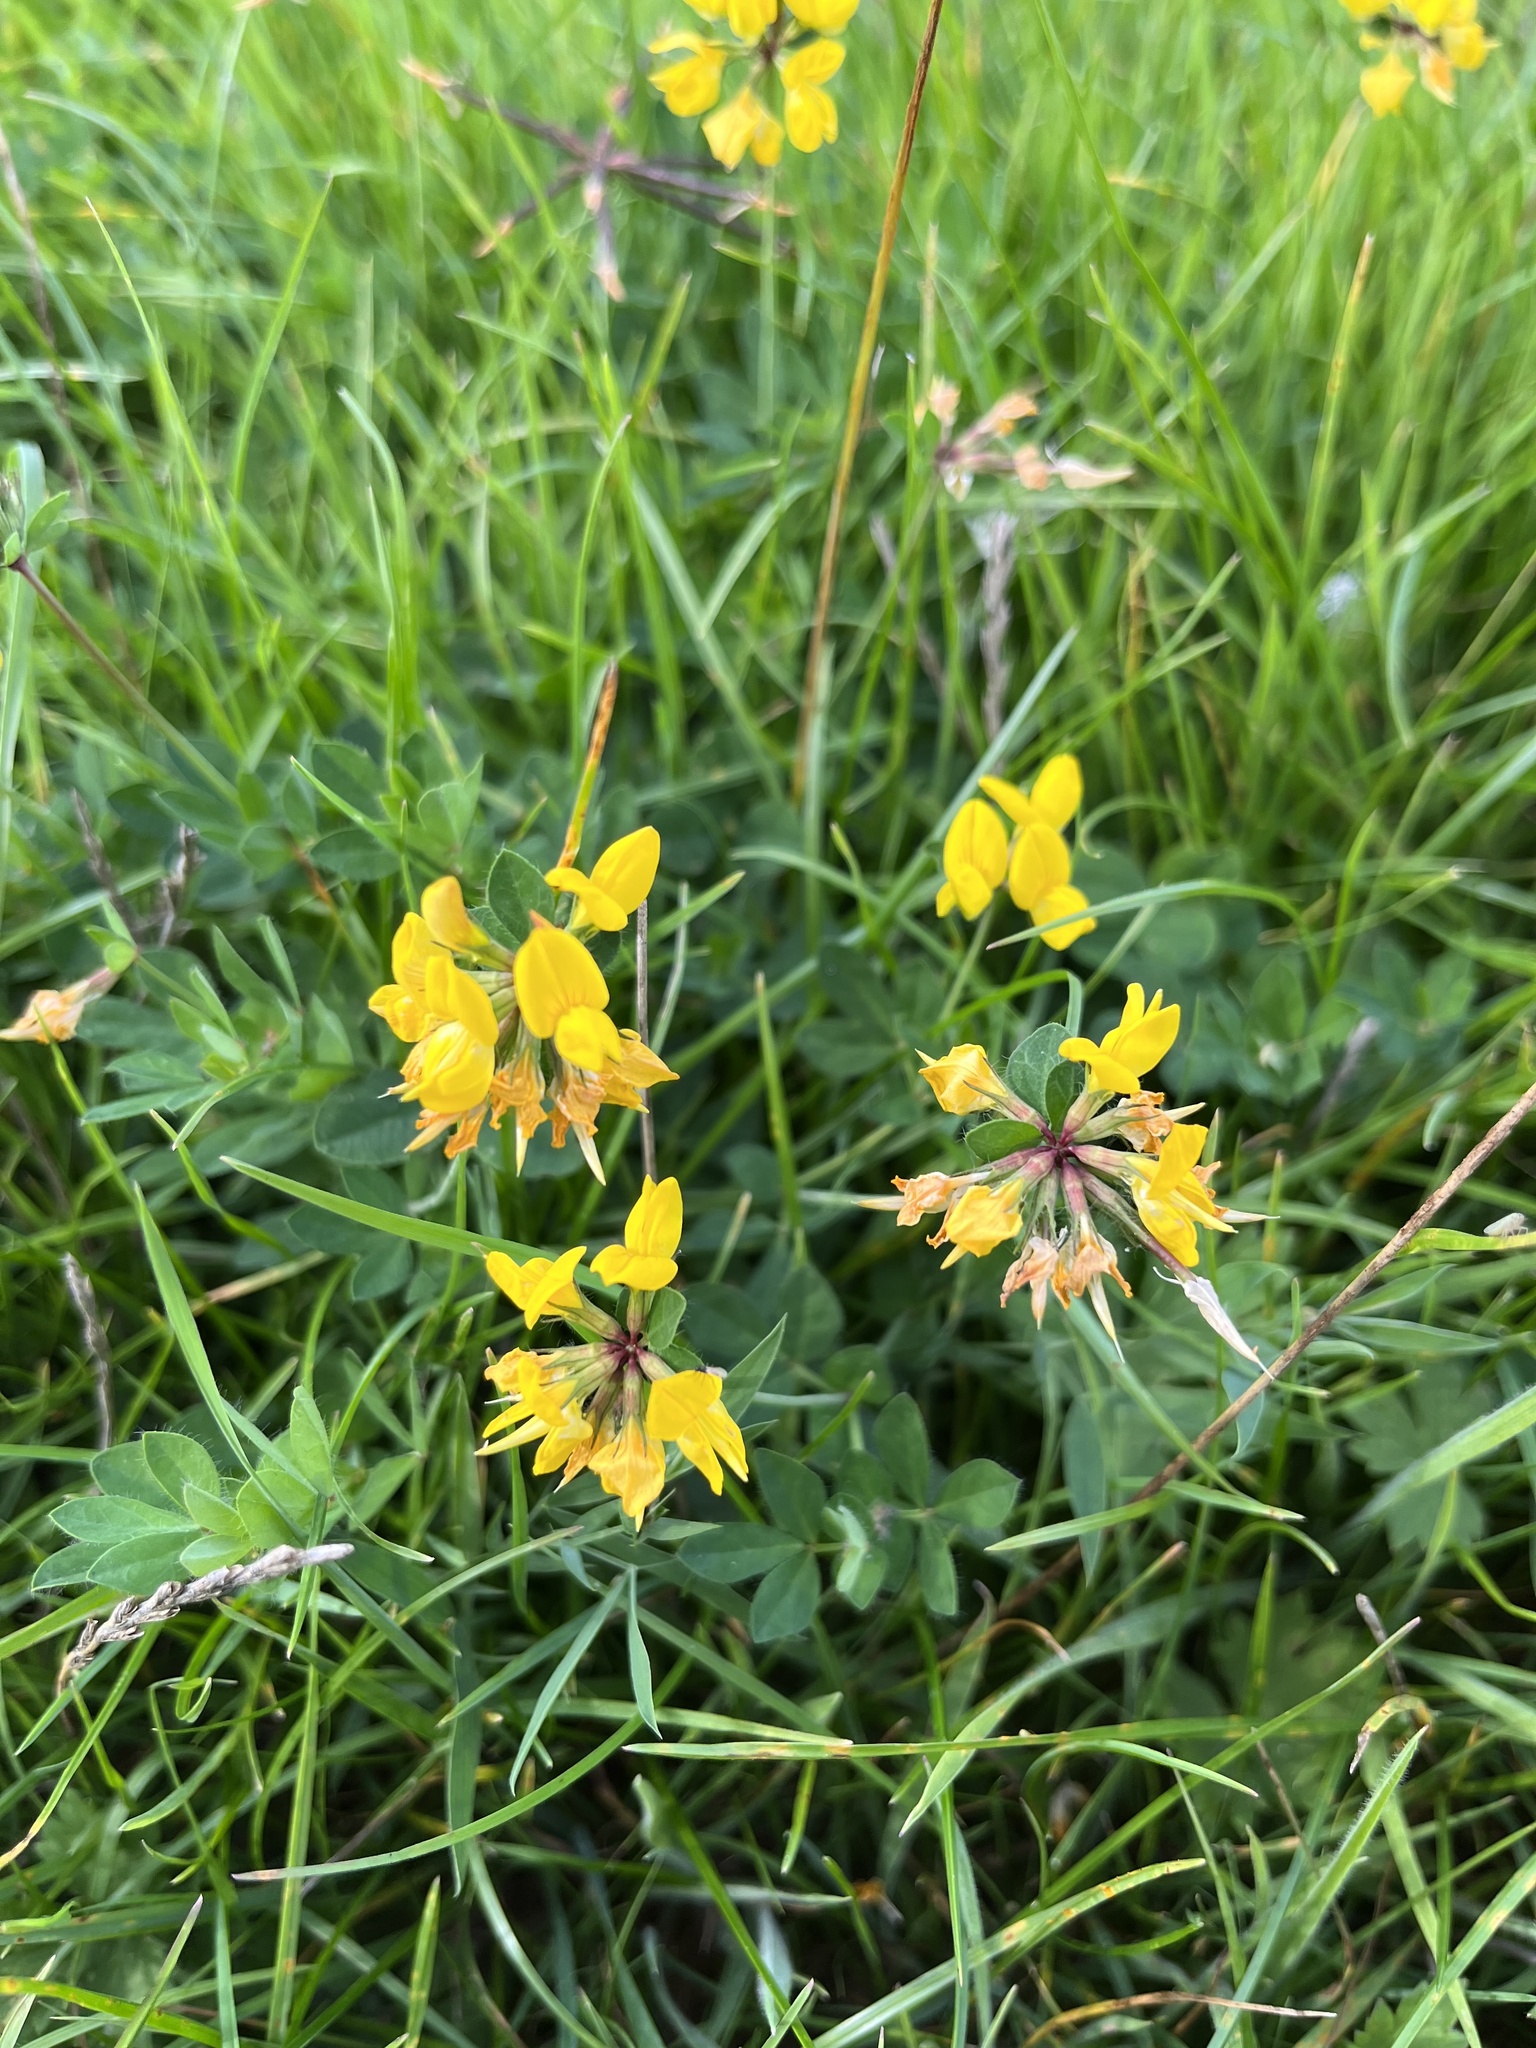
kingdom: Plantae
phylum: Tracheophyta
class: Magnoliopsida
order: Fabales
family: Fabaceae
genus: Lotus
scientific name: Lotus pedunculatus
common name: Greater birdsfoot-trefoil
